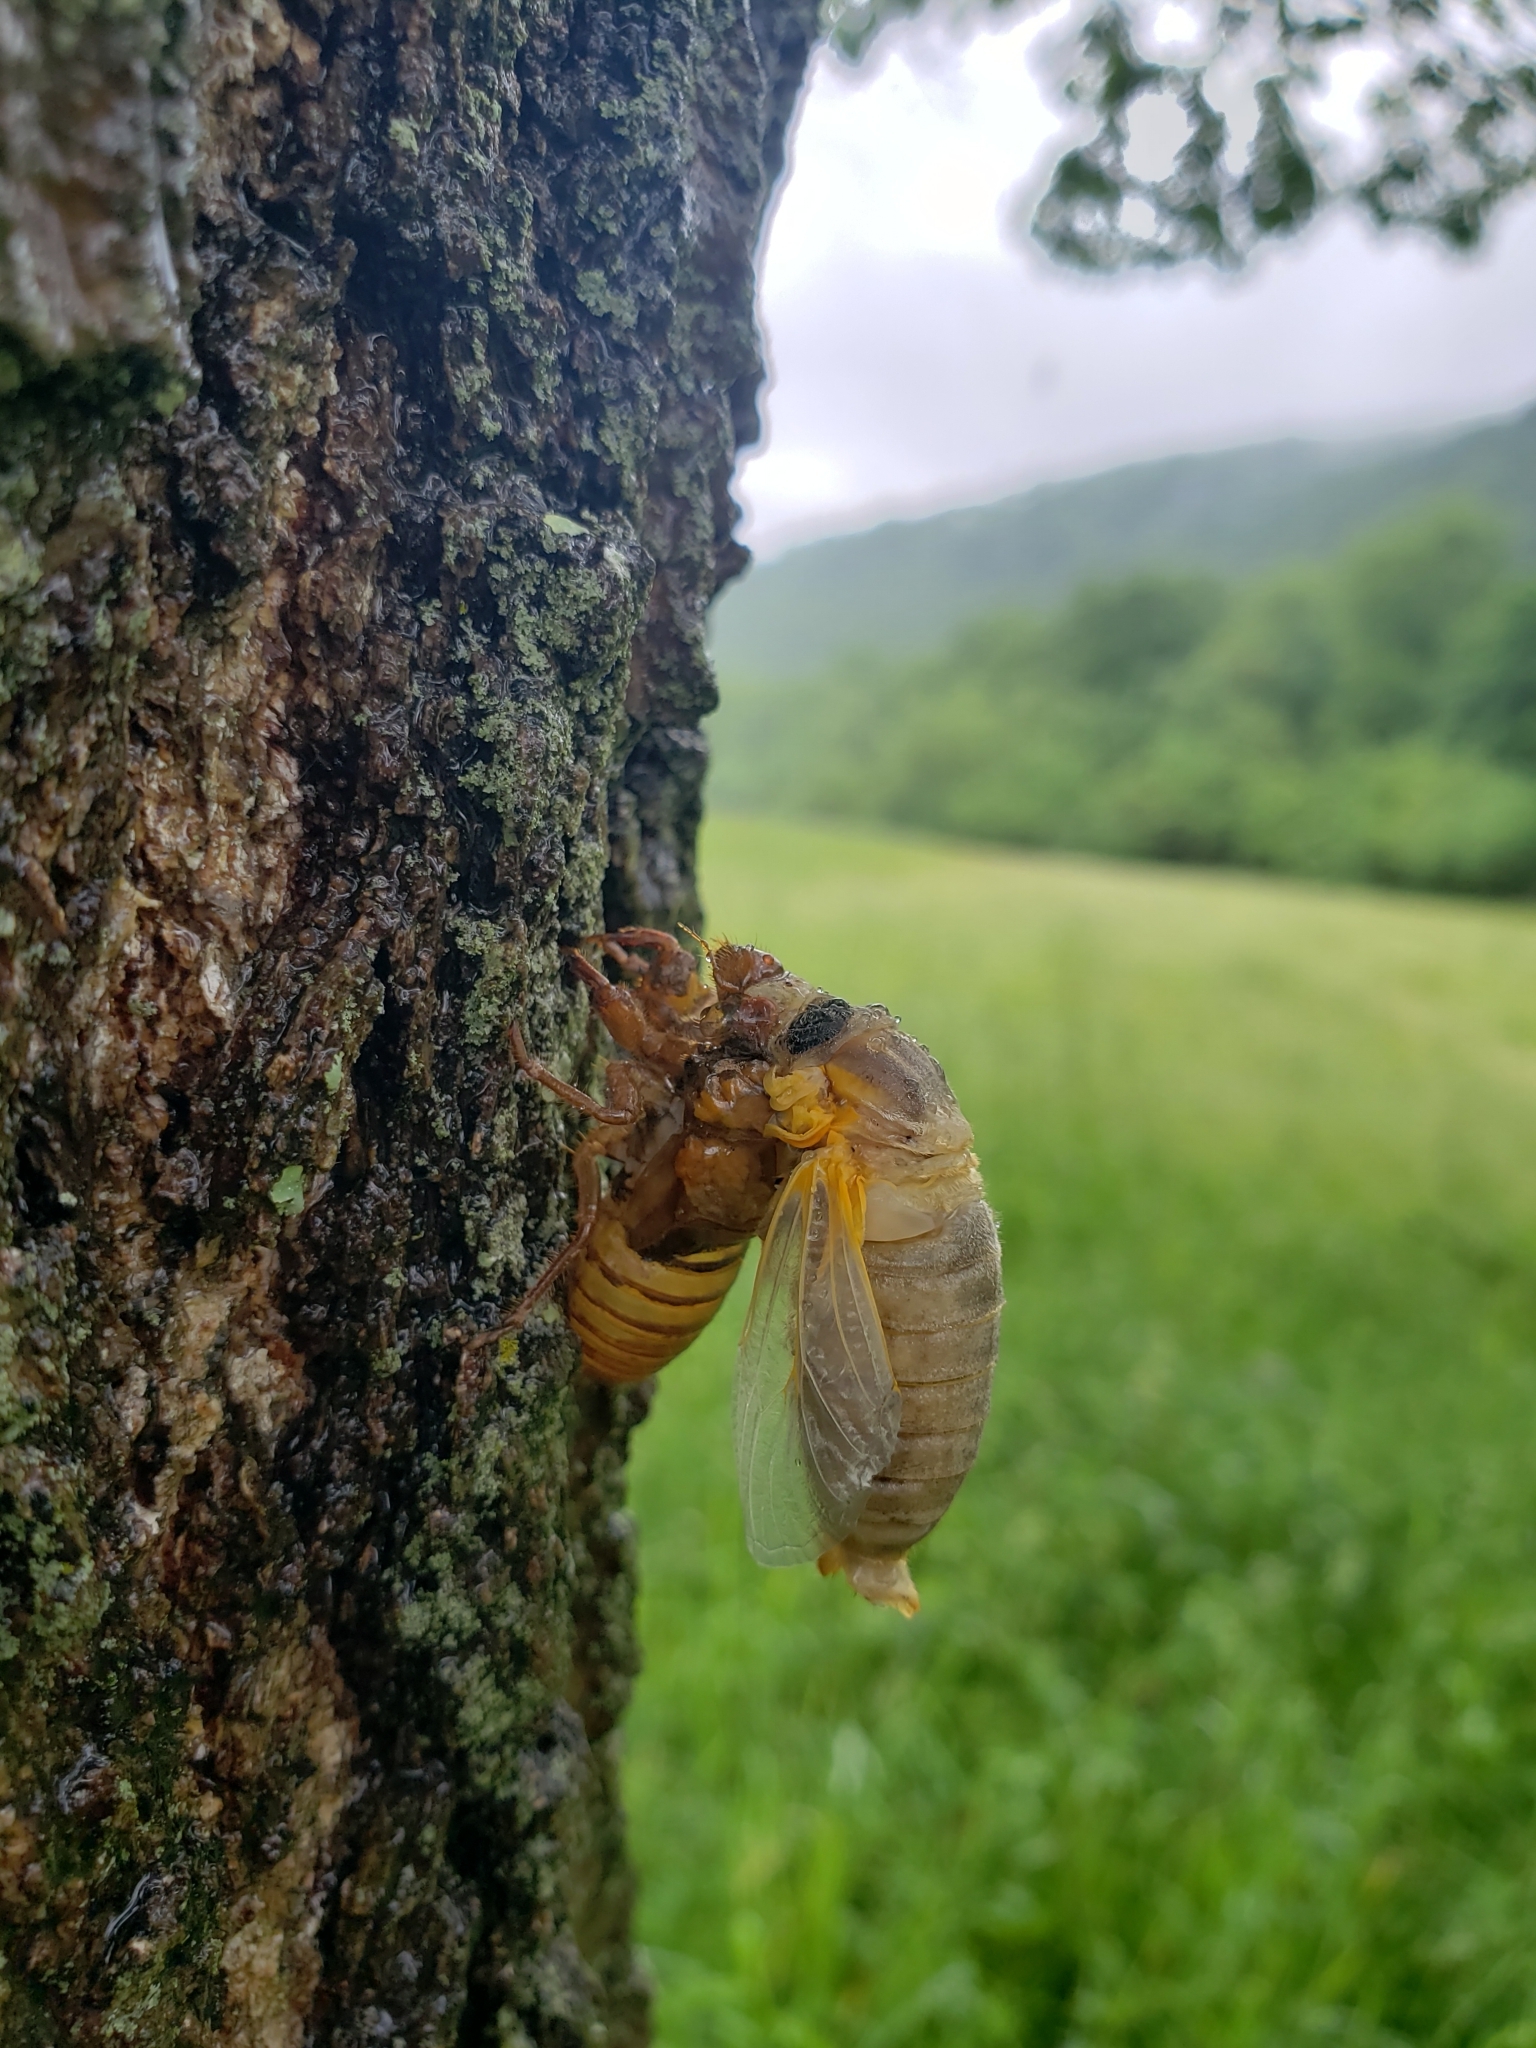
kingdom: Animalia
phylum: Arthropoda
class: Insecta
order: Hemiptera
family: Cicadidae
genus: Magicicada
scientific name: Magicicada
